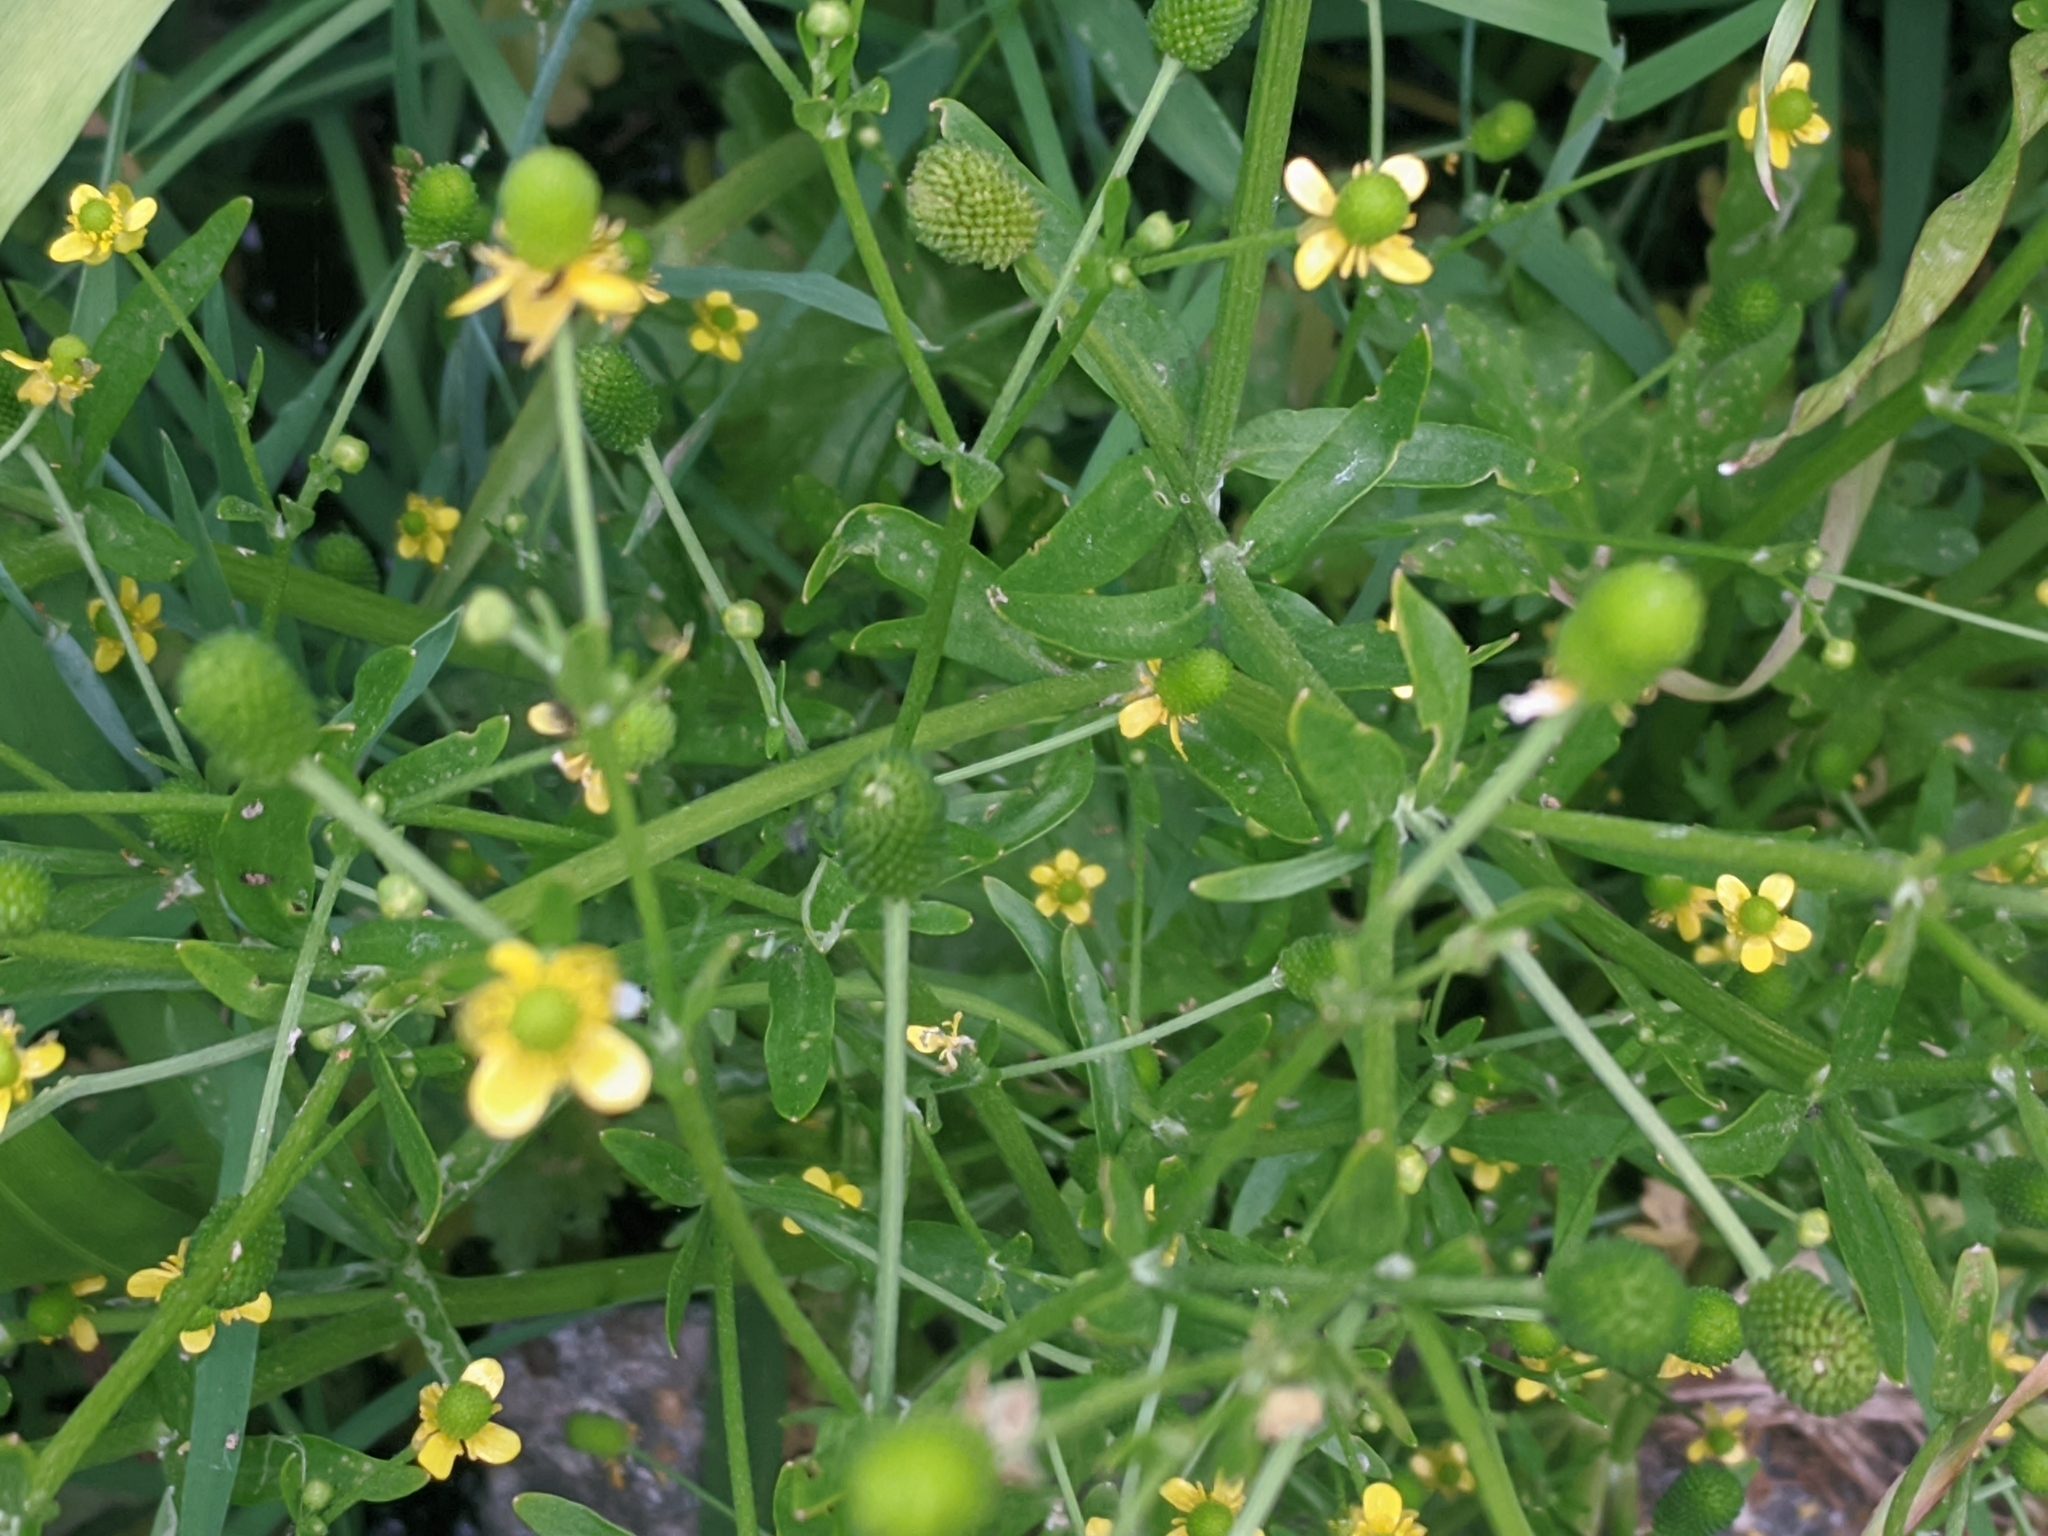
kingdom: Plantae
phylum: Tracheophyta
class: Magnoliopsida
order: Ranunculales
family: Ranunculaceae
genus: Ranunculus
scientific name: Ranunculus sceleratus
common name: Celery-leaved buttercup
